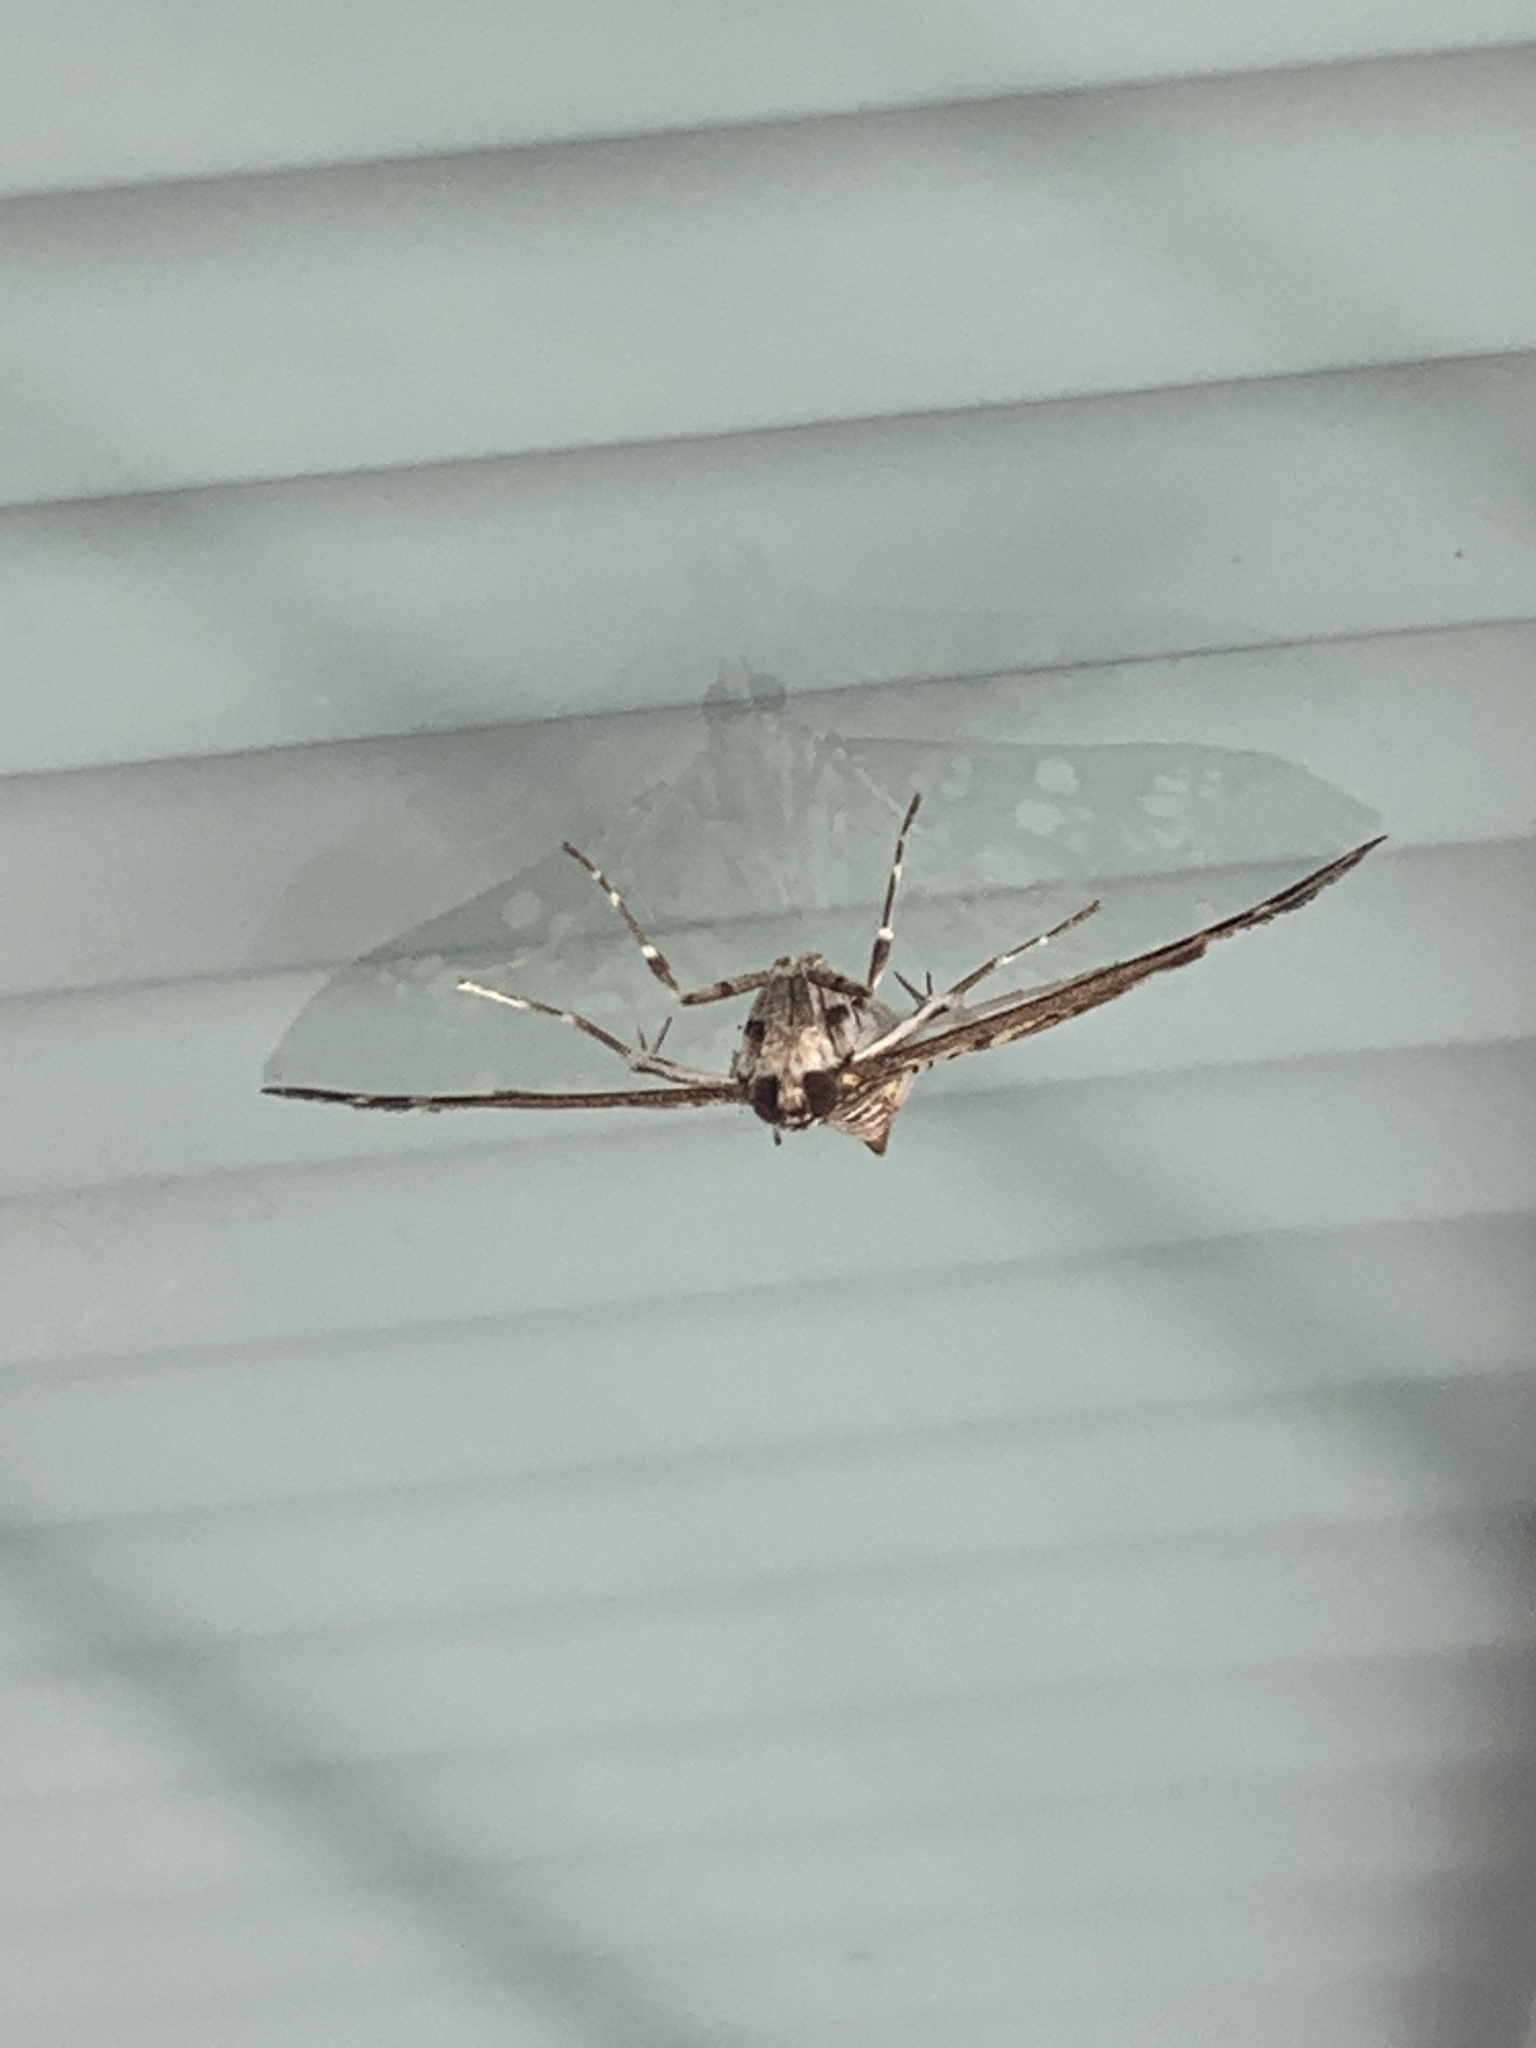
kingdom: Animalia
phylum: Arthropoda
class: Insecta
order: Lepidoptera
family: Crambidae
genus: Samea
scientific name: Samea ecclesialis
